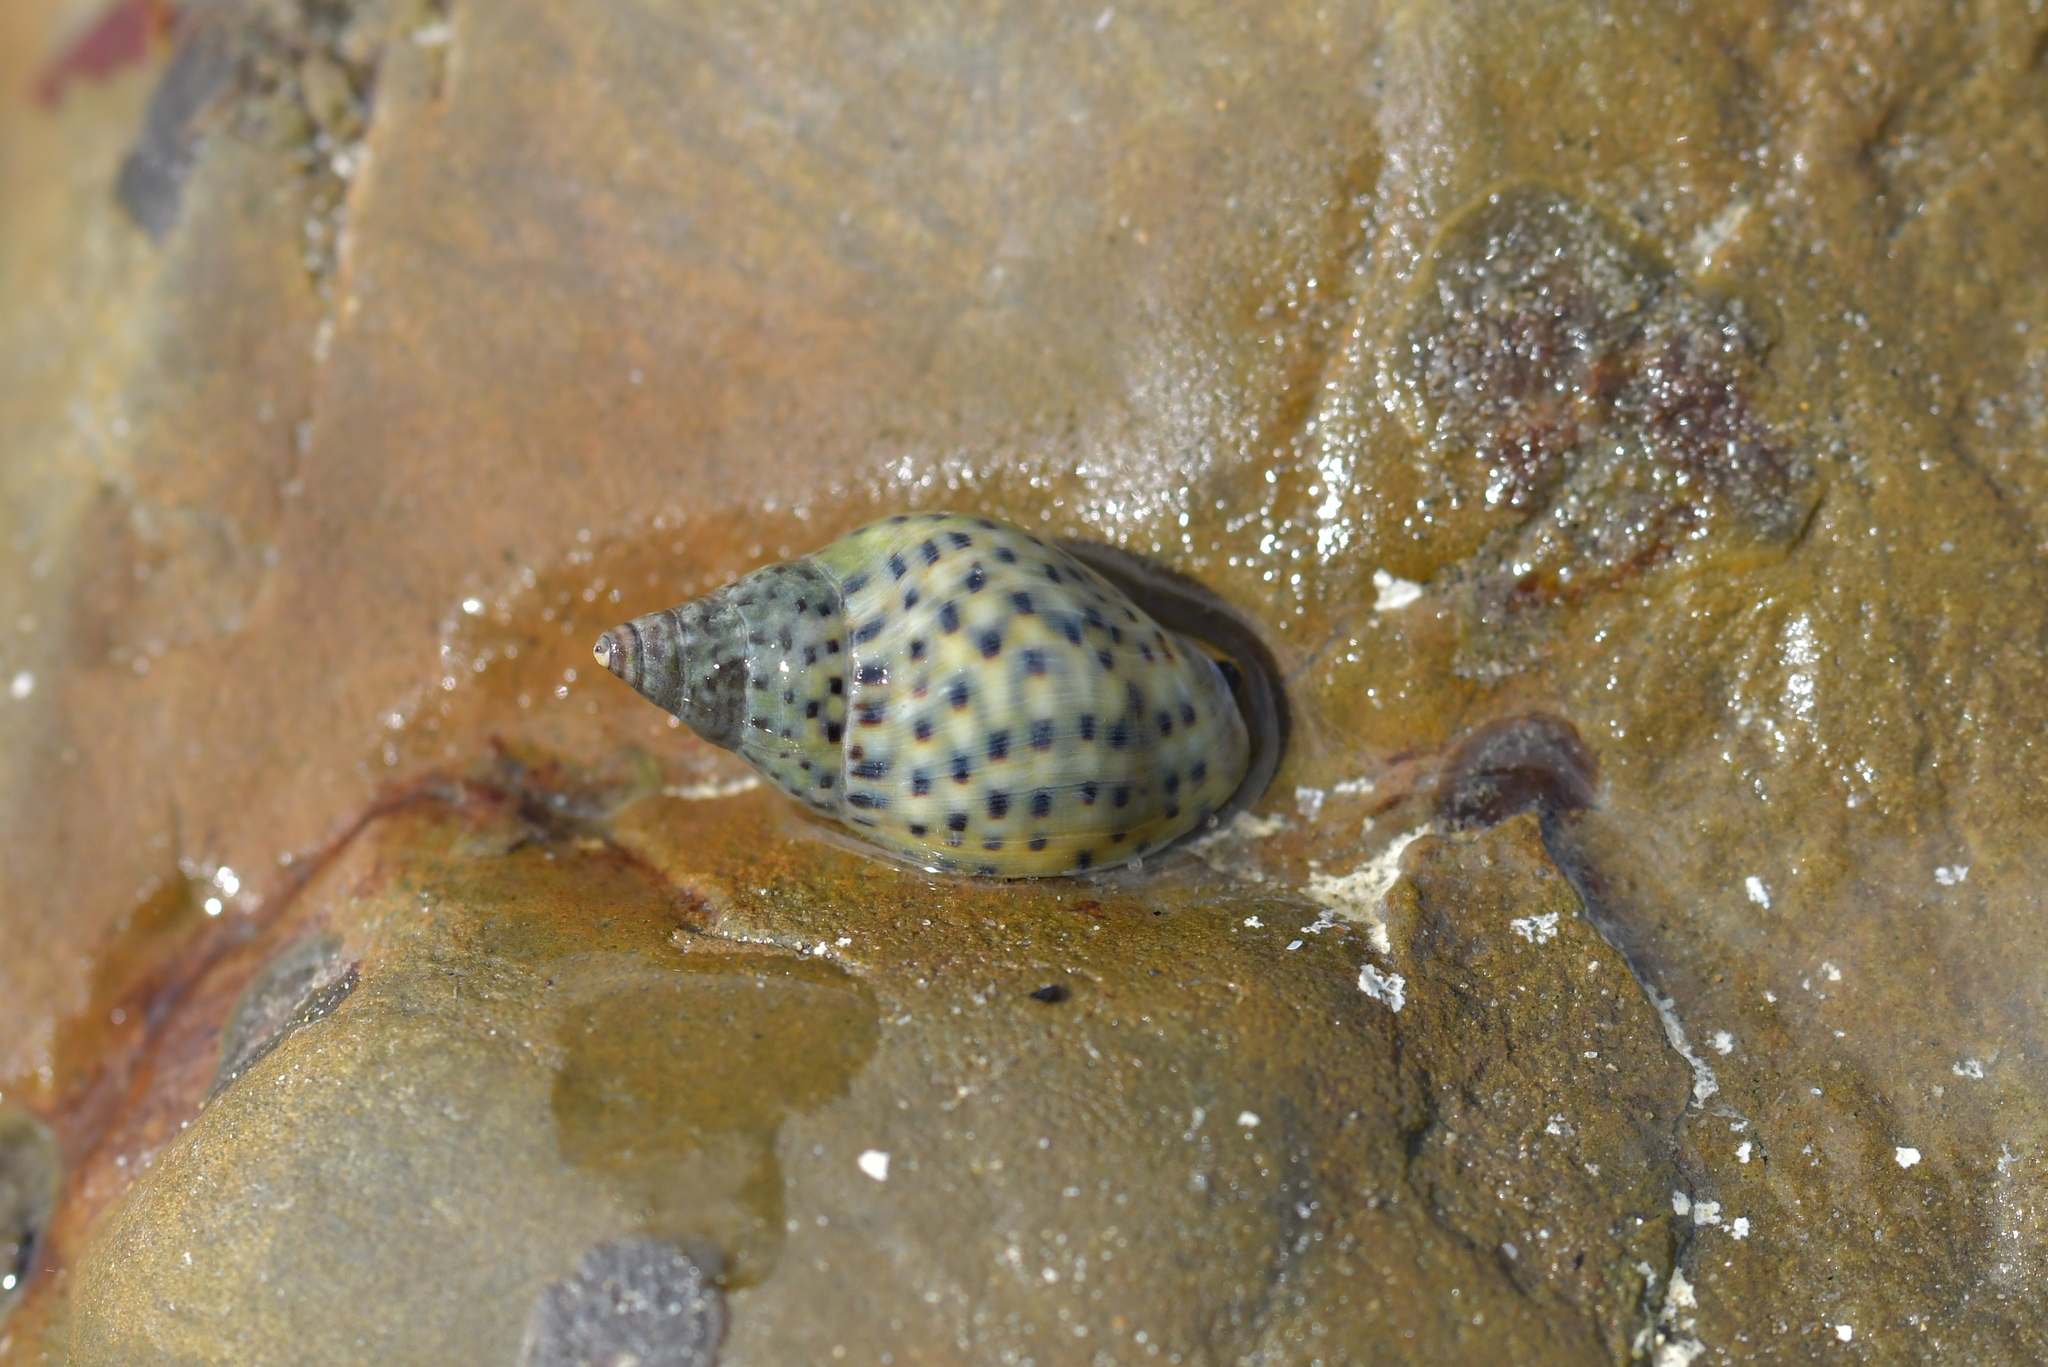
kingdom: Animalia
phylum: Mollusca
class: Gastropoda
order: Neogastropoda
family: Cominellidae
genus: Cominella
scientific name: Cominella maculosa
